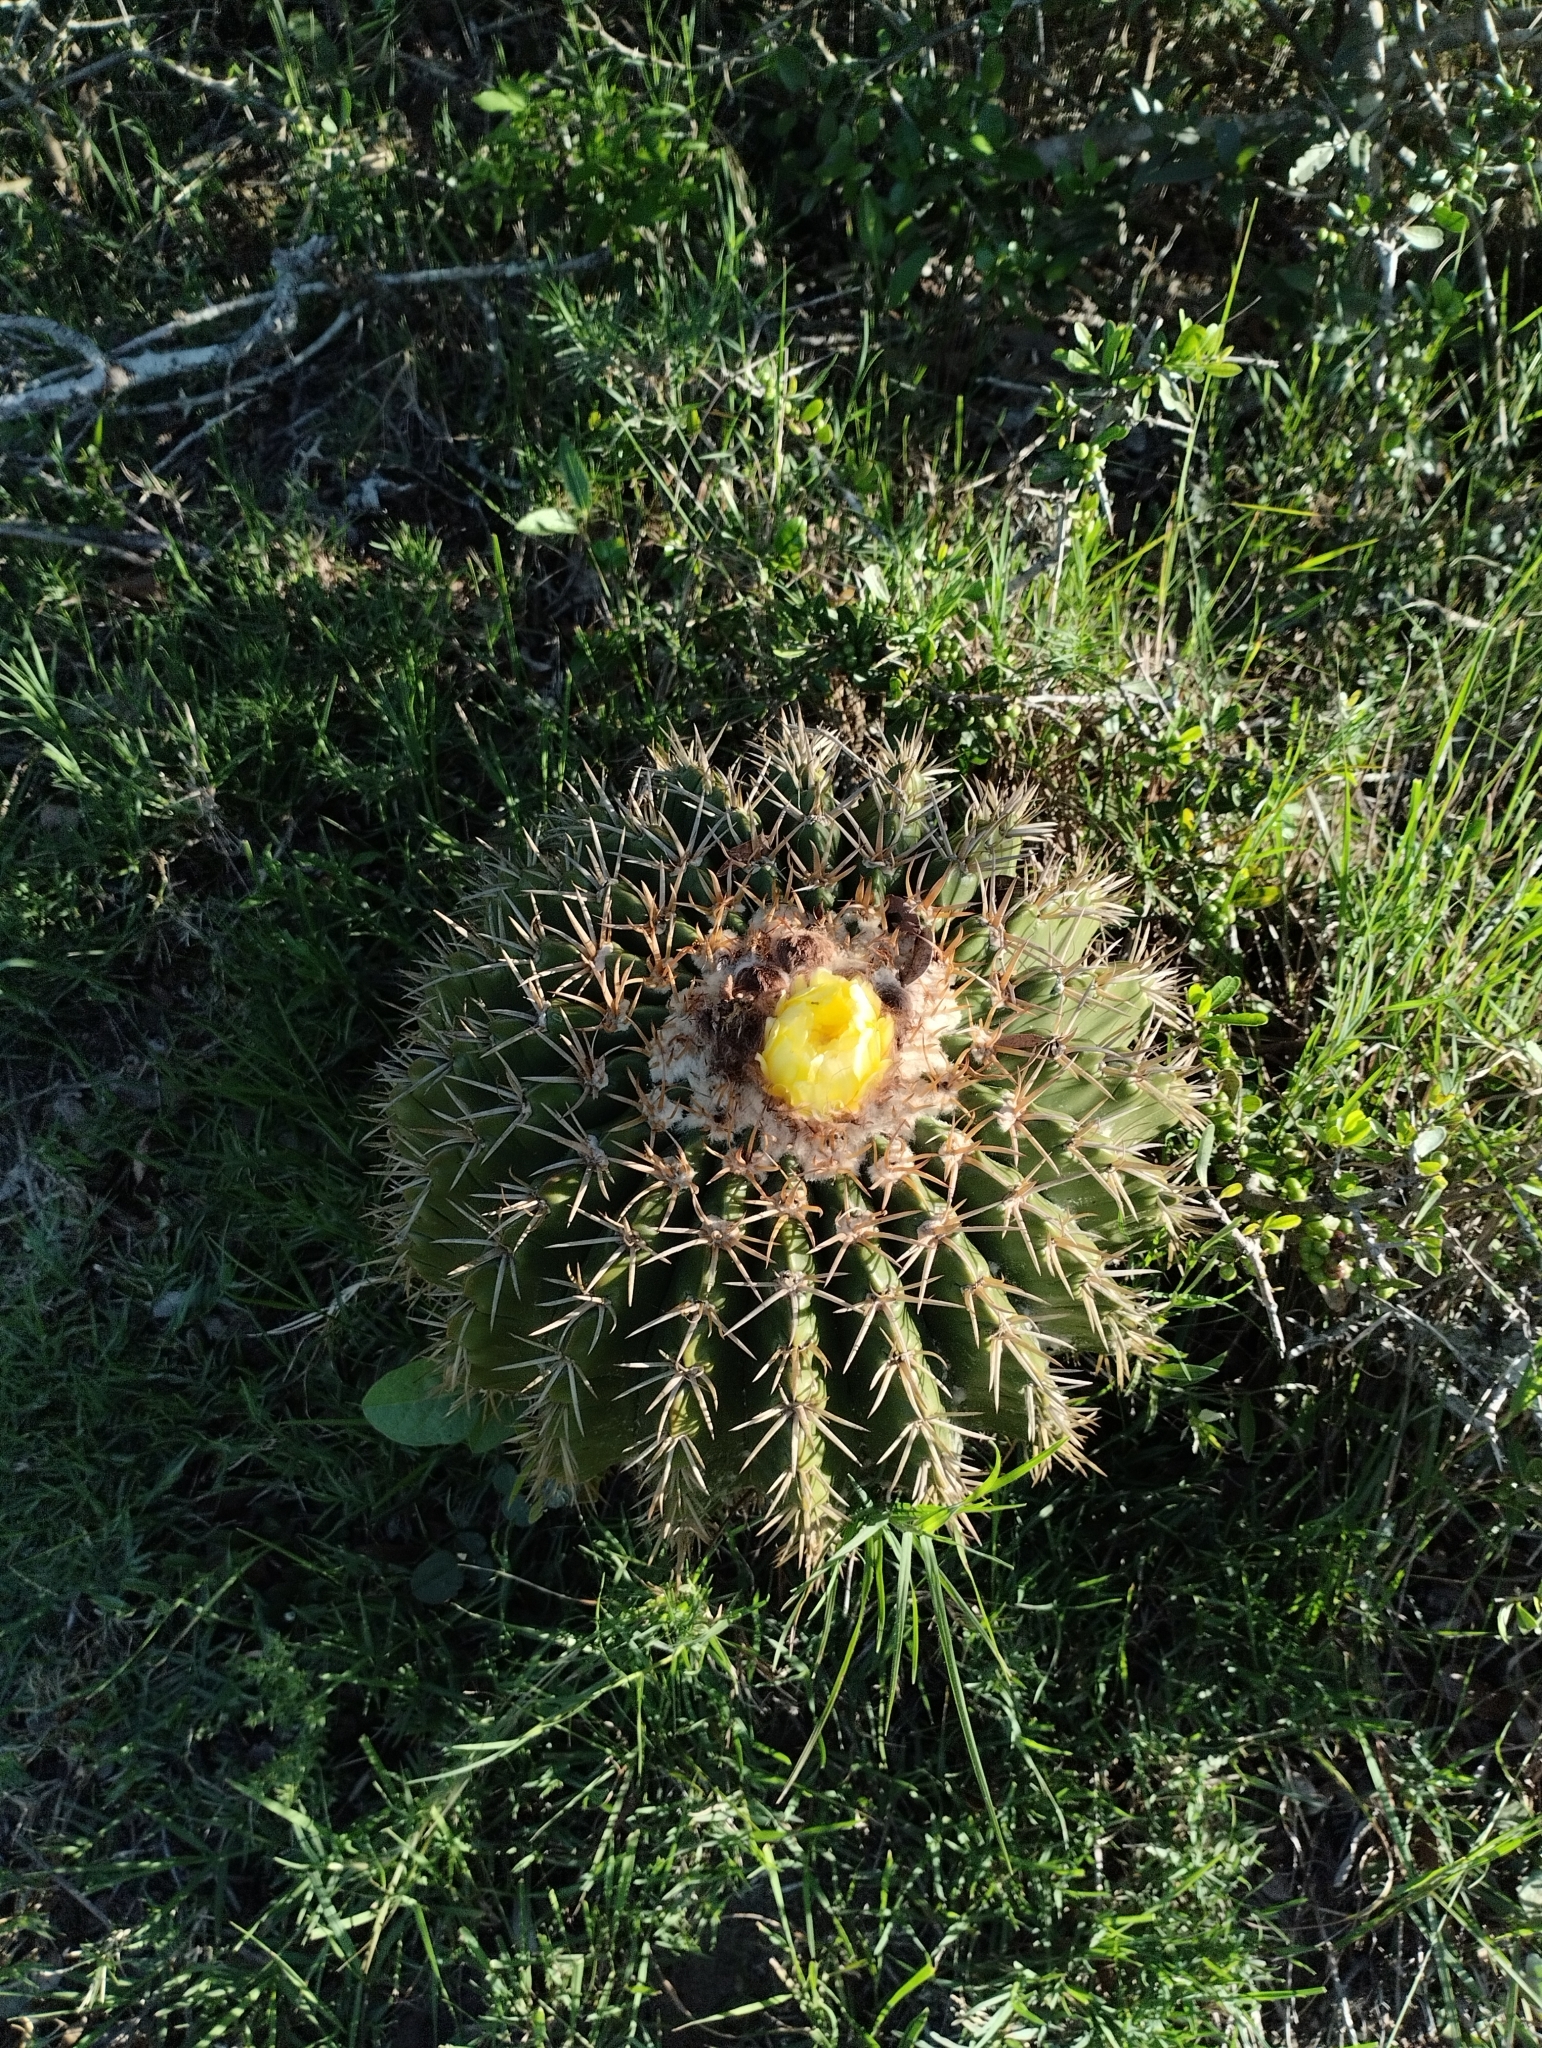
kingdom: Plantae
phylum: Tracheophyta
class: Magnoliopsida
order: Caryophyllales
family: Cactaceae
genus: Parodia
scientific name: Parodia erinacea
